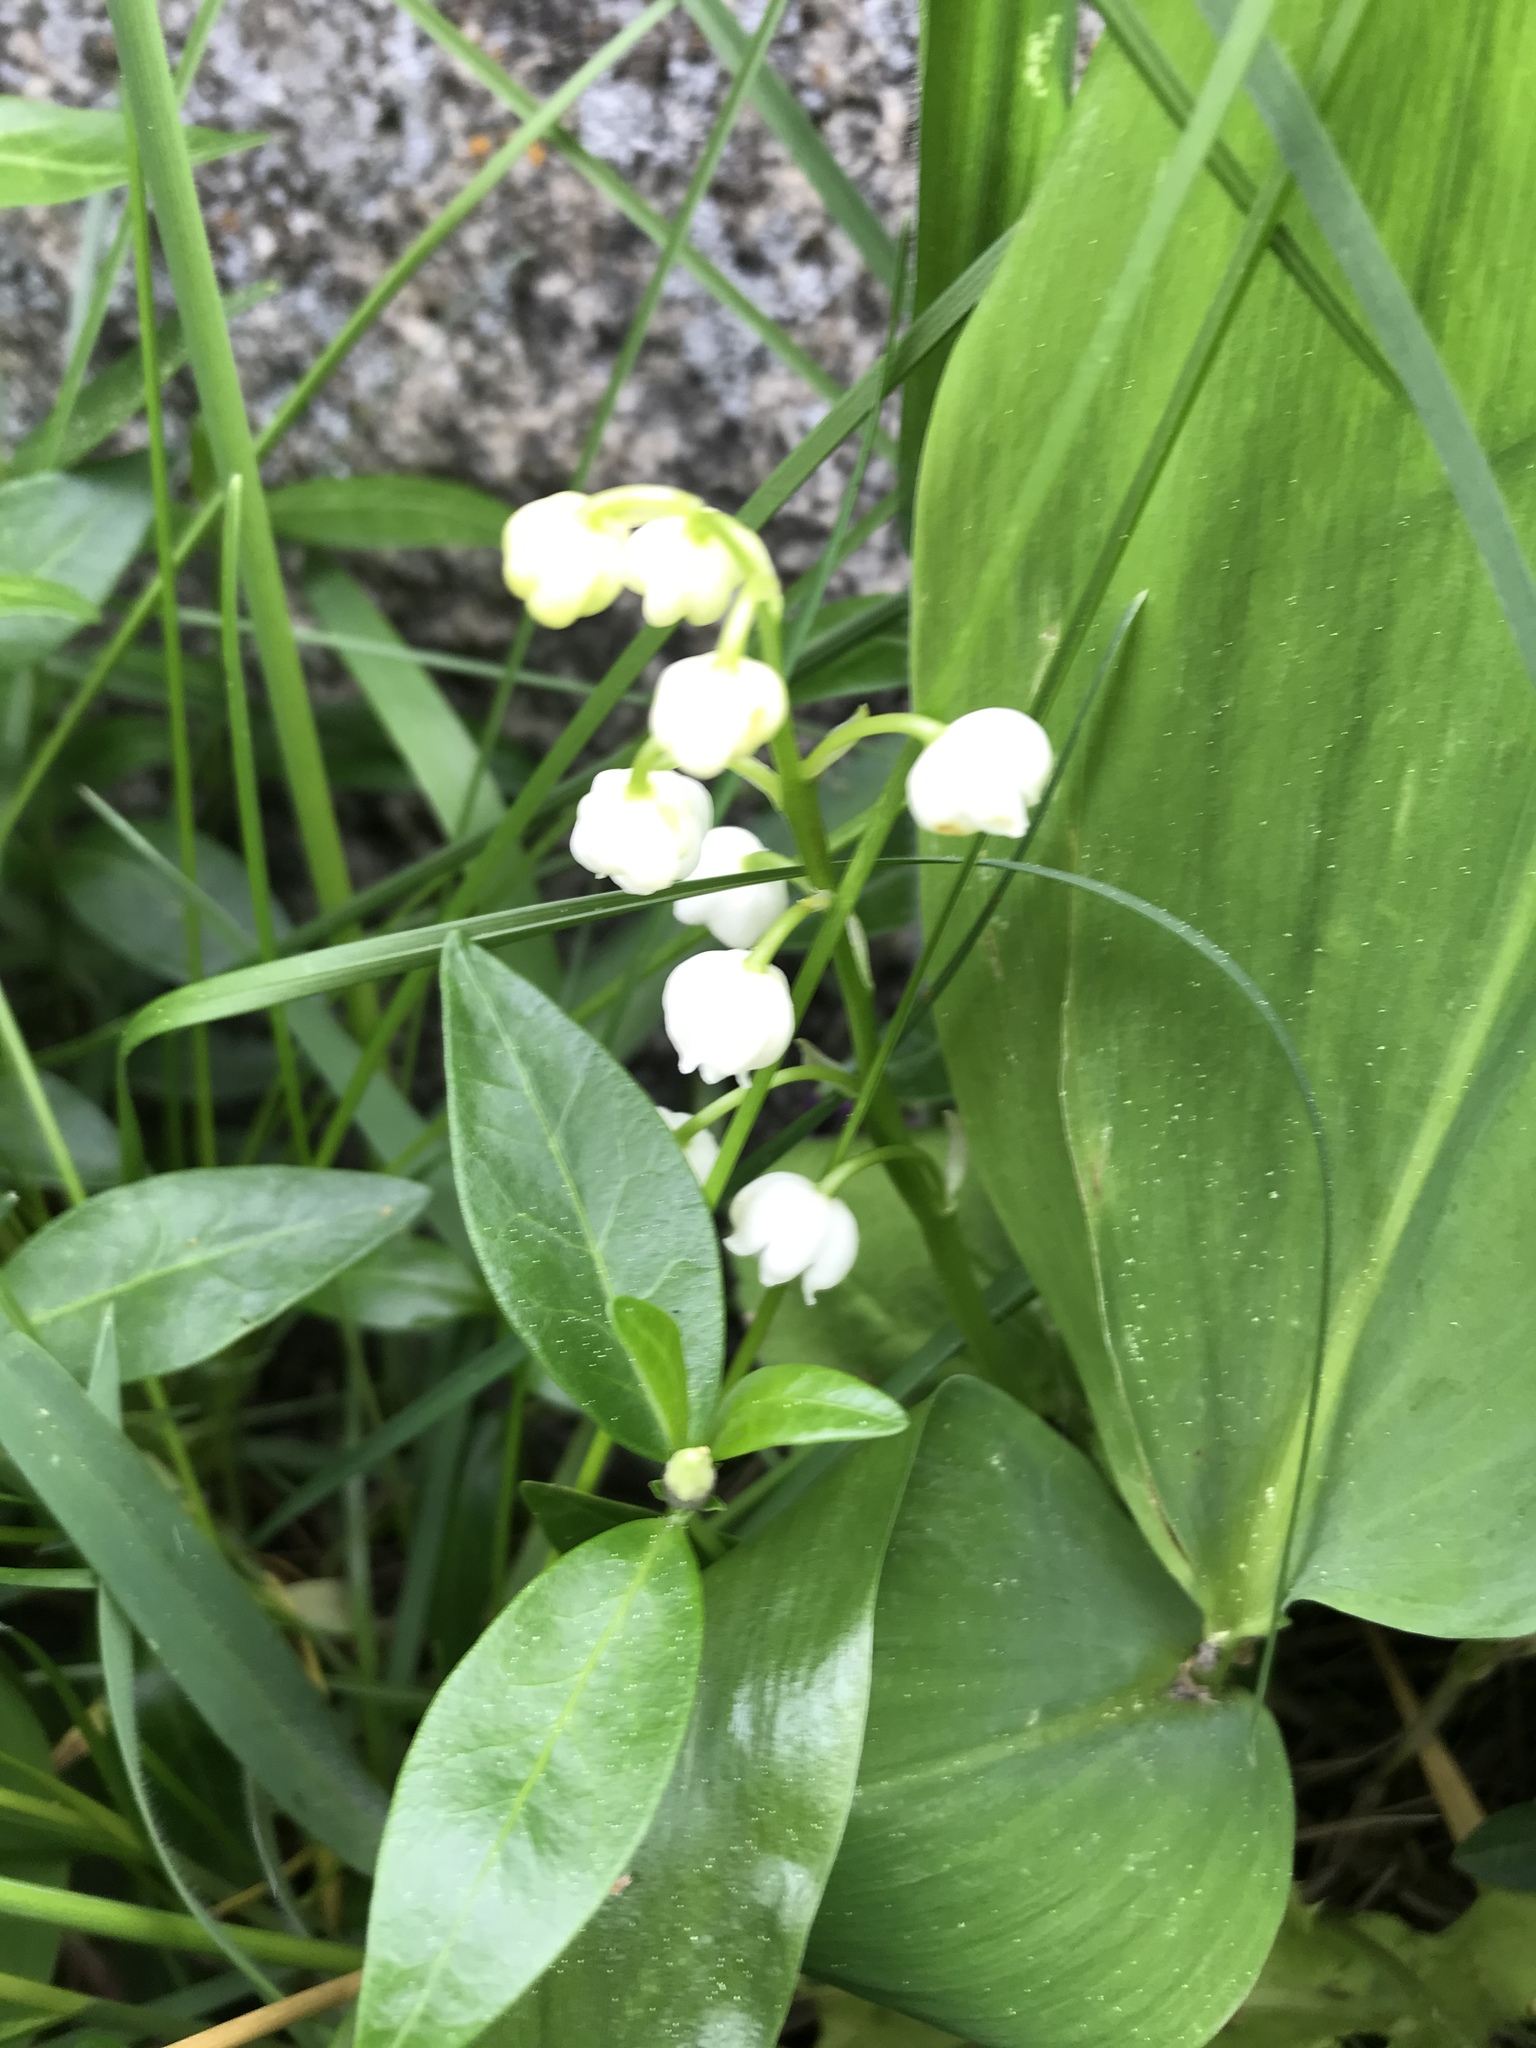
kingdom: Plantae
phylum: Tracheophyta
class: Liliopsida
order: Asparagales
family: Asparagaceae
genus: Convallaria
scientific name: Convallaria majalis
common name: Lily-of-the-valley
